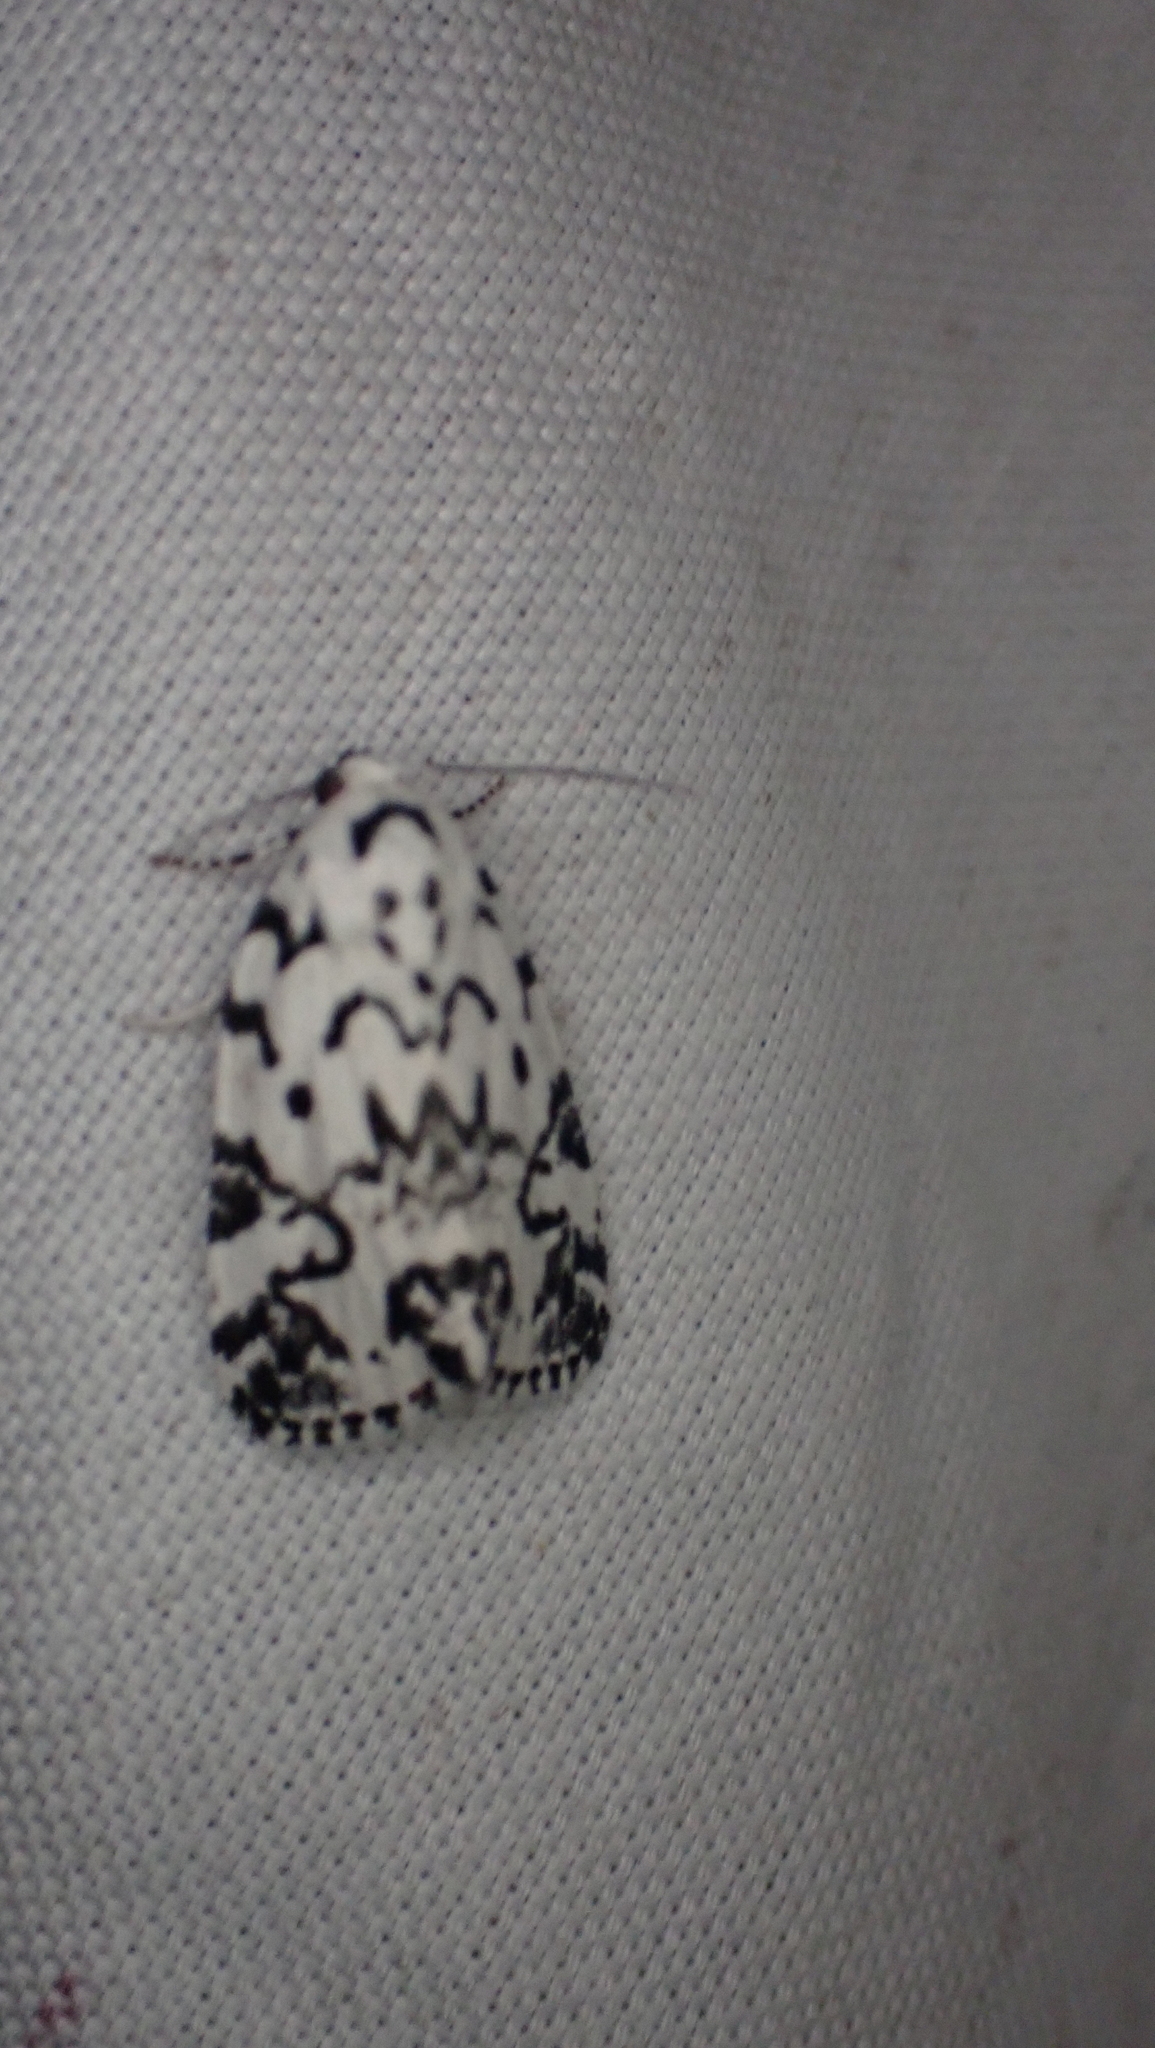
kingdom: Animalia
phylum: Arthropoda
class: Insecta
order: Lepidoptera
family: Noctuidae
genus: Polygrammate
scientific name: Polygrammate hebraeicum
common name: Hebrew moth
